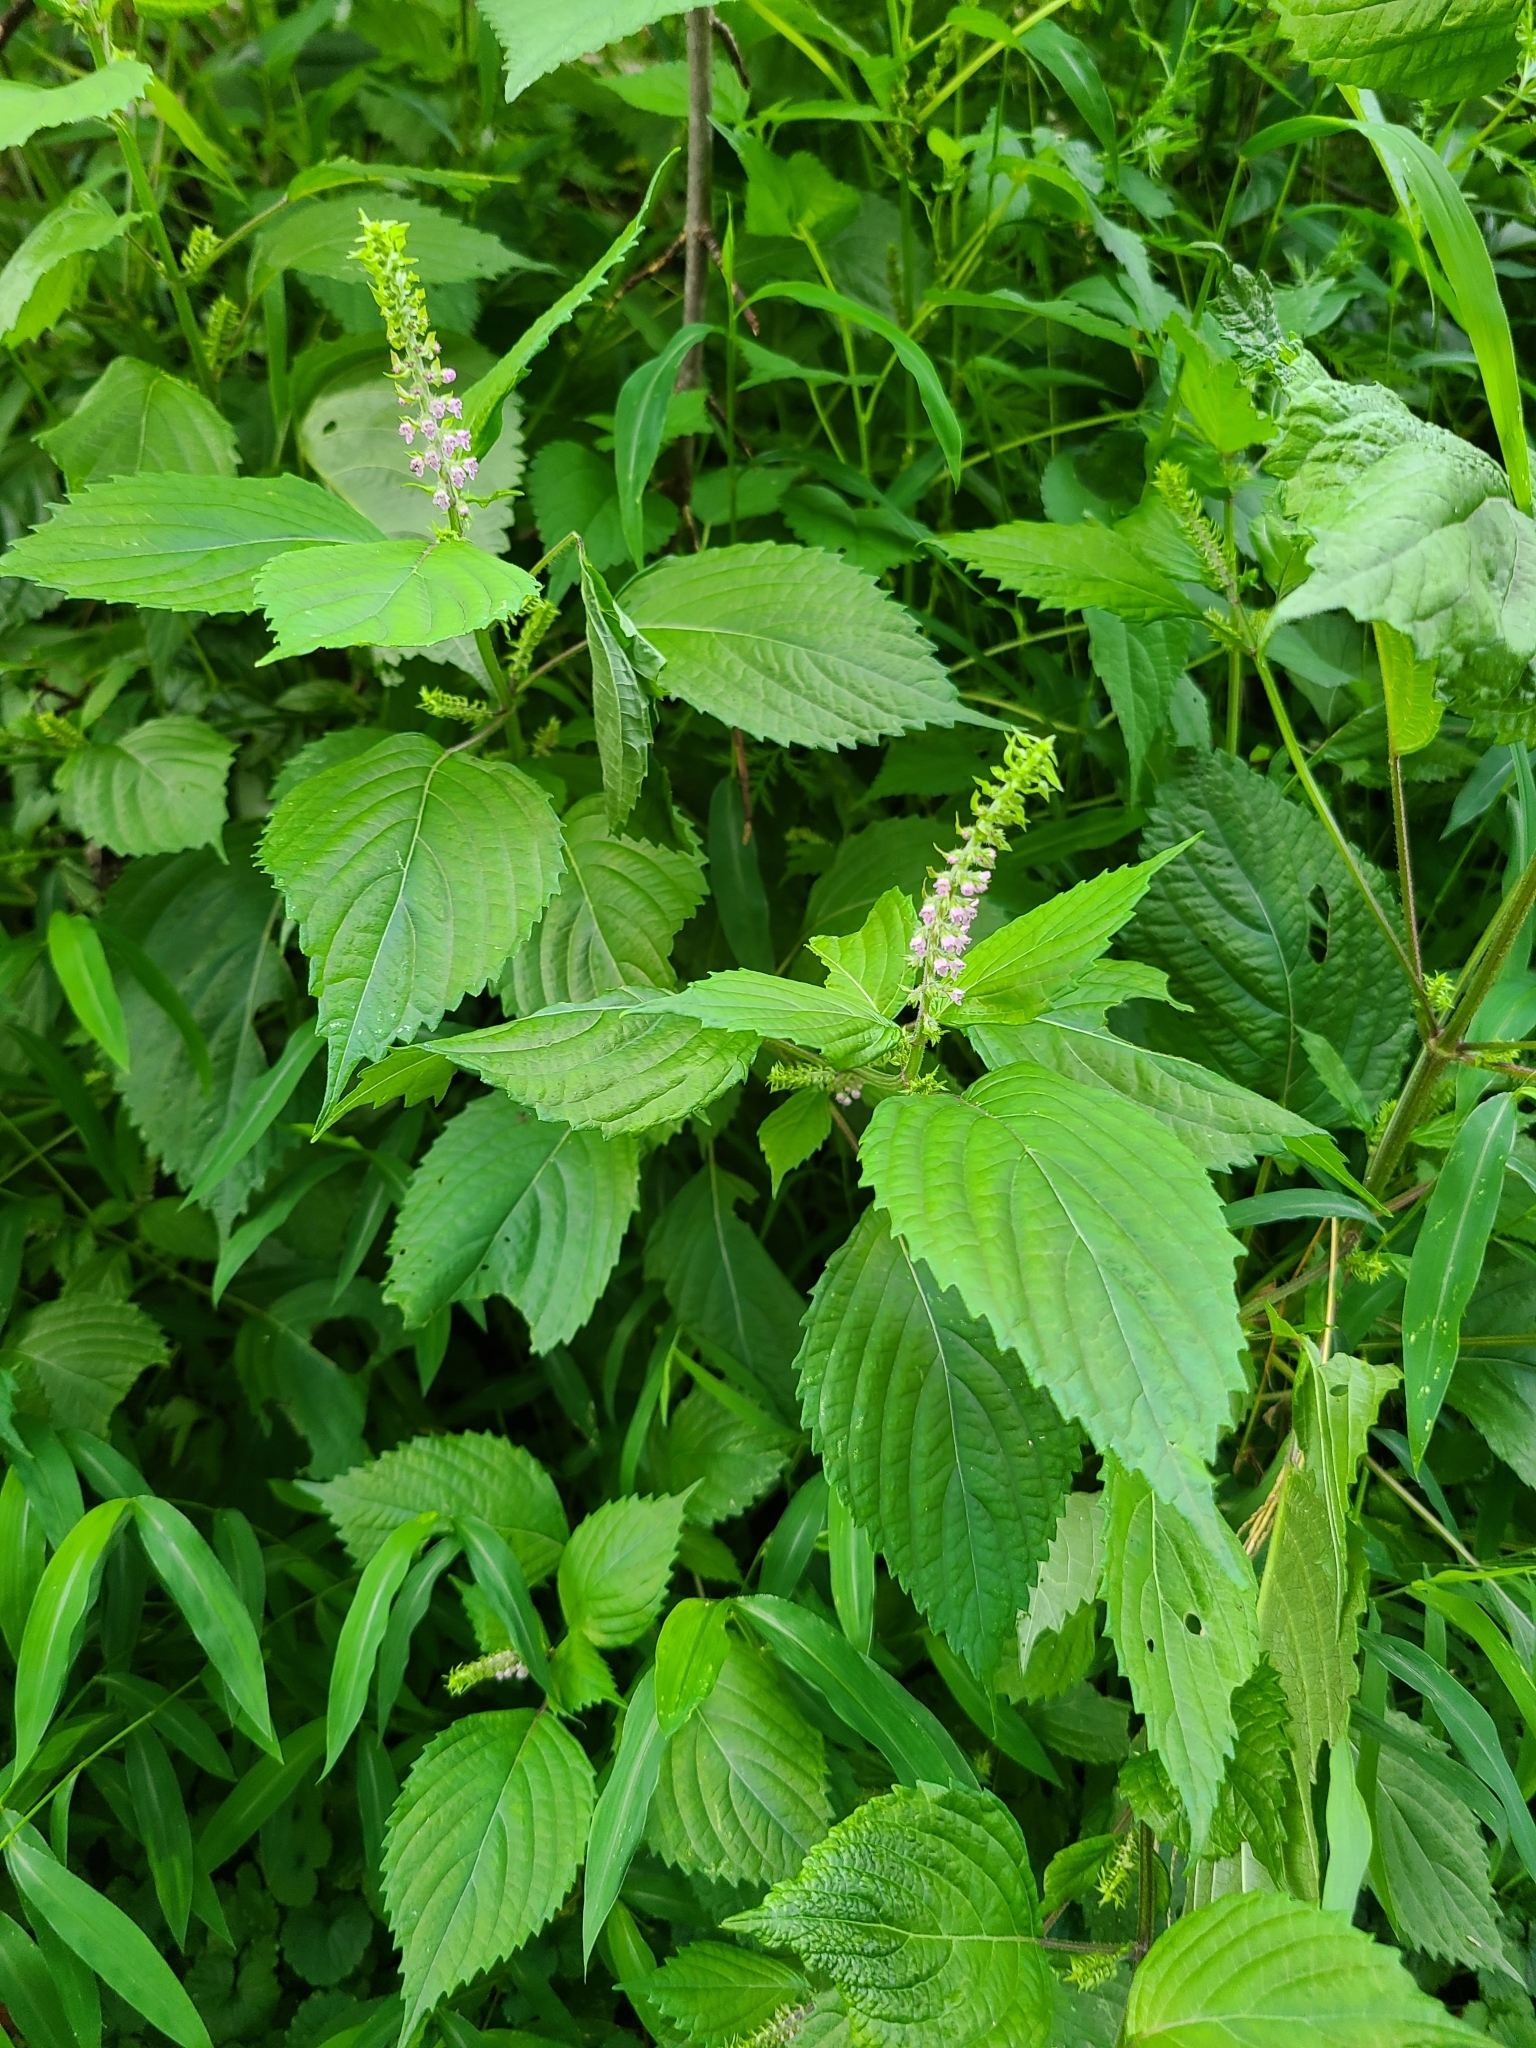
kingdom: Plantae
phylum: Tracheophyta
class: Magnoliopsida
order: Lamiales
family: Lamiaceae
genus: Perilla
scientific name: Perilla frutescens
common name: Perilla
